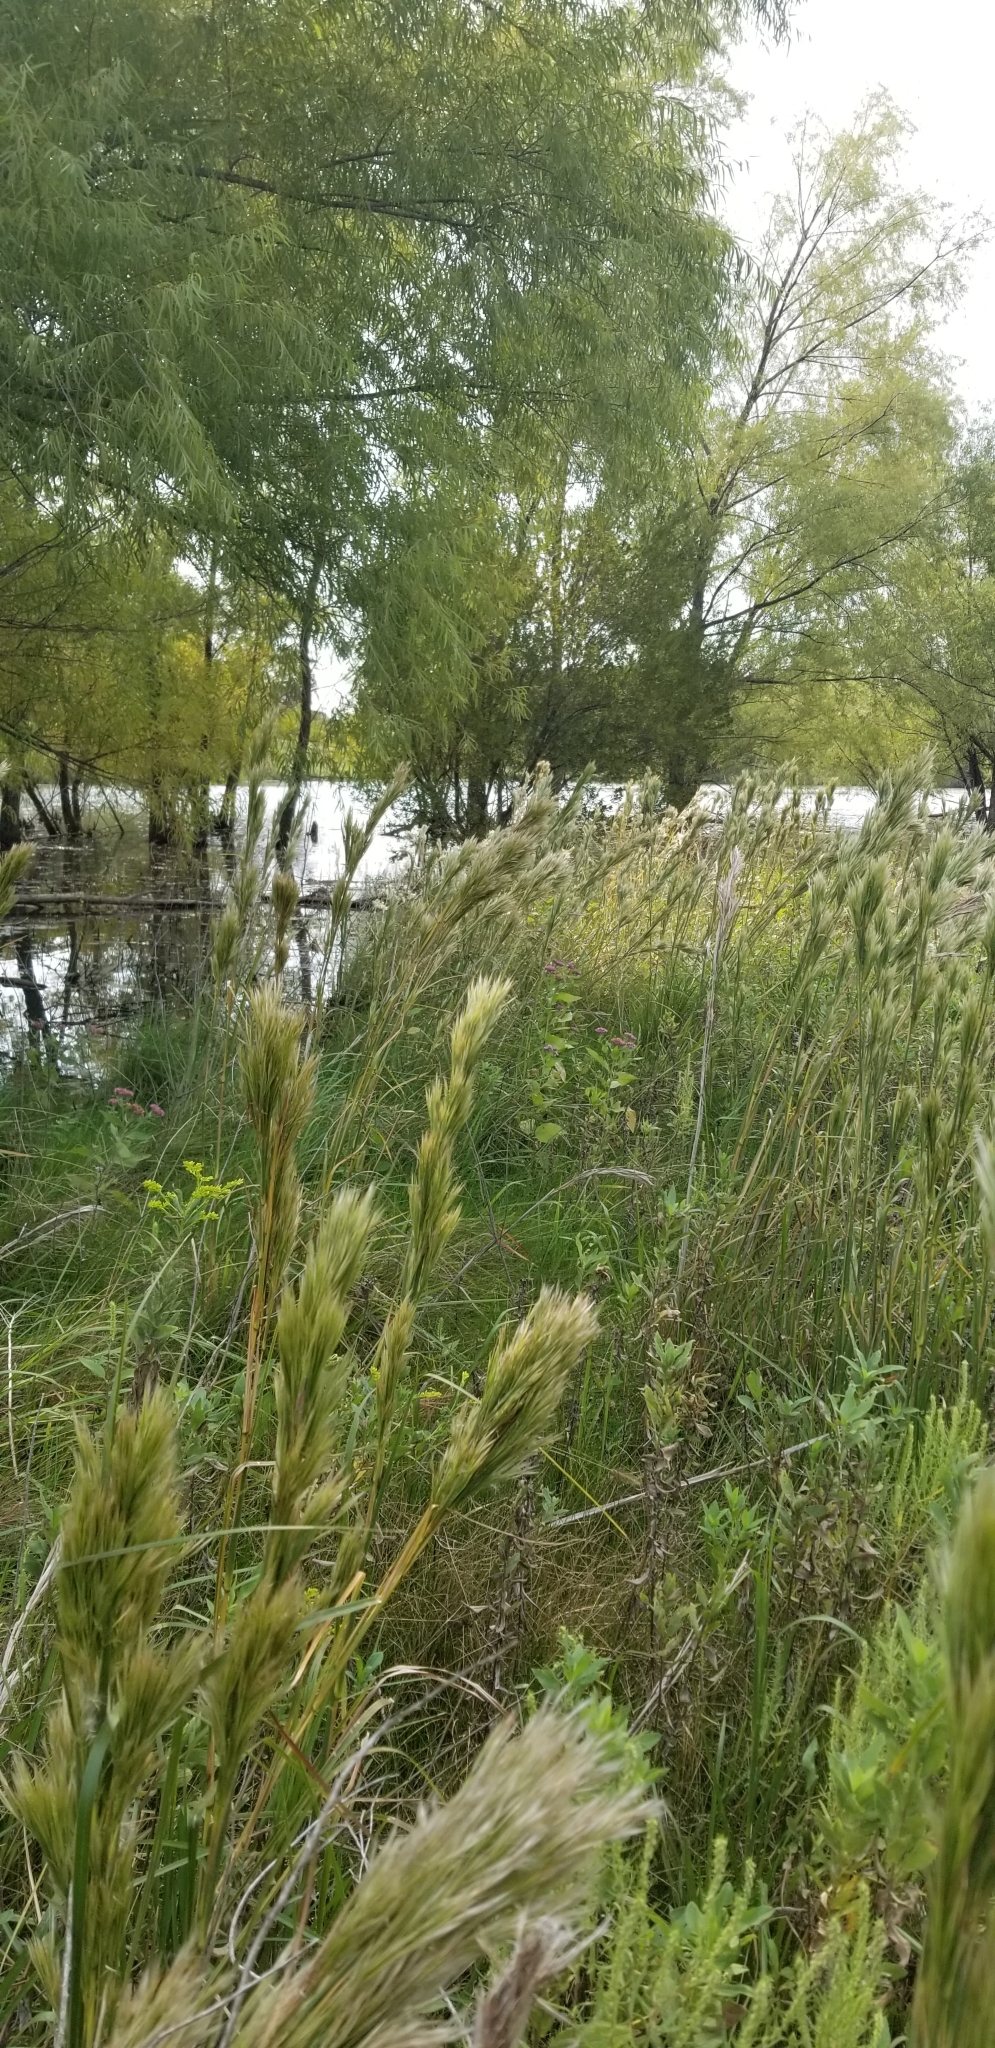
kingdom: Plantae
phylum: Tracheophyta
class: Liliopsida
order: Poales
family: Poaceae
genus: Andropogon
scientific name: Andropogon tenuispatheus
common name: Bushy bluestem
